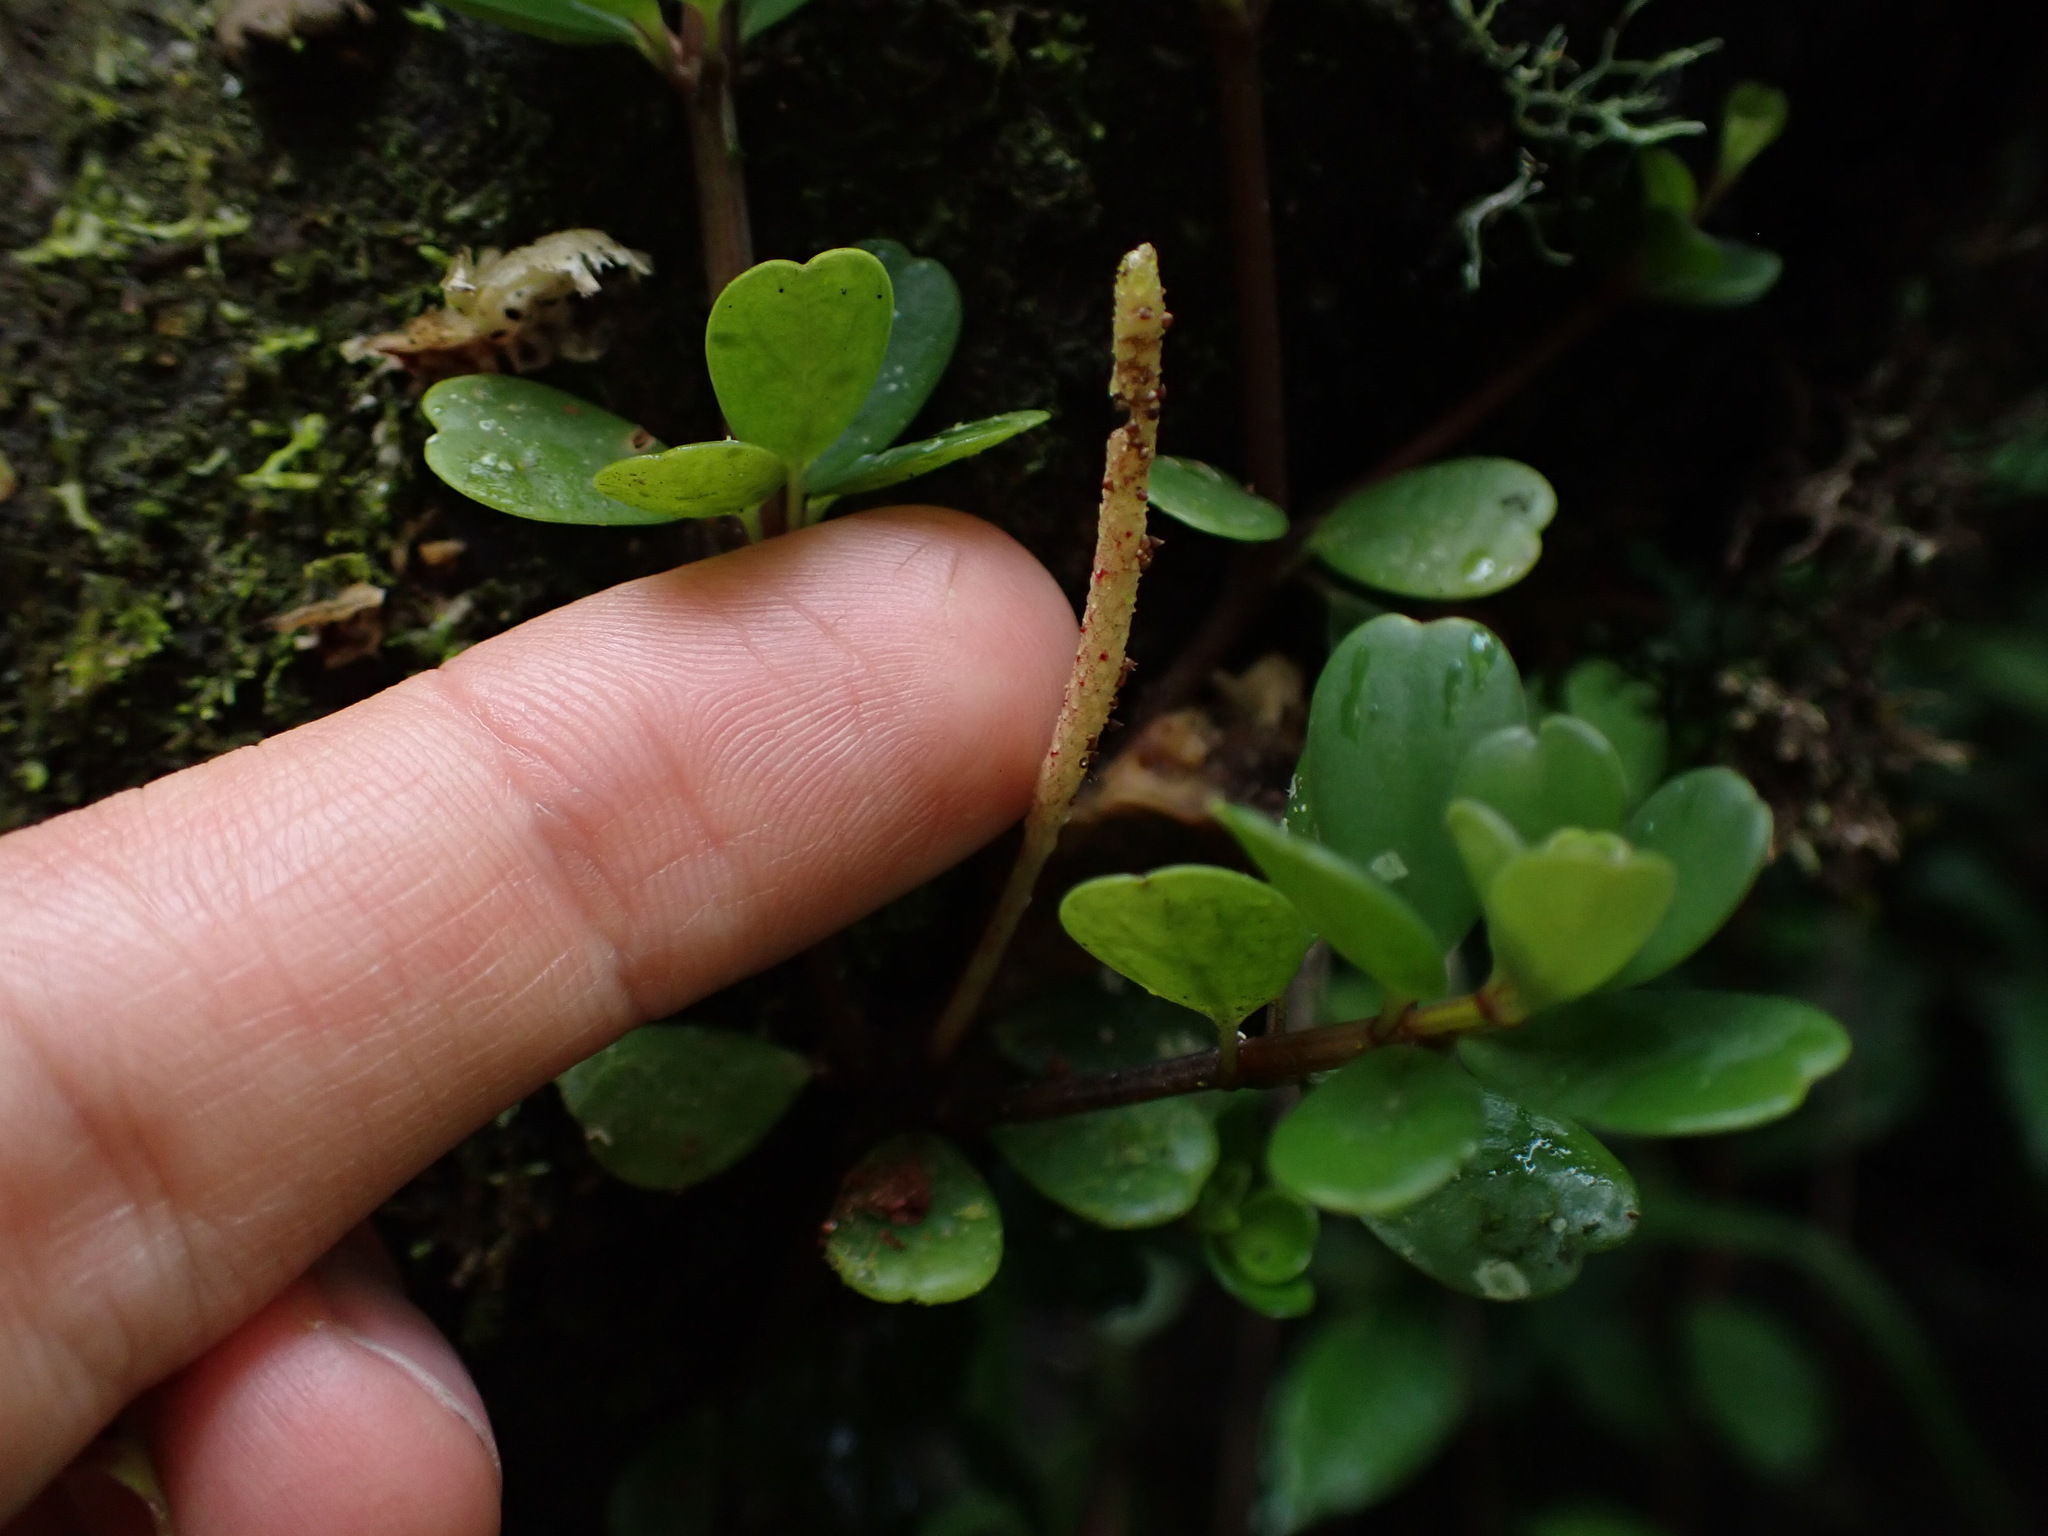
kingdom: Plantae
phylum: Tracheophyta
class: Magnoliopsida
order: Piperales
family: Piperaceae
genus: Peperomia
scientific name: Peperomia quadrifolia
